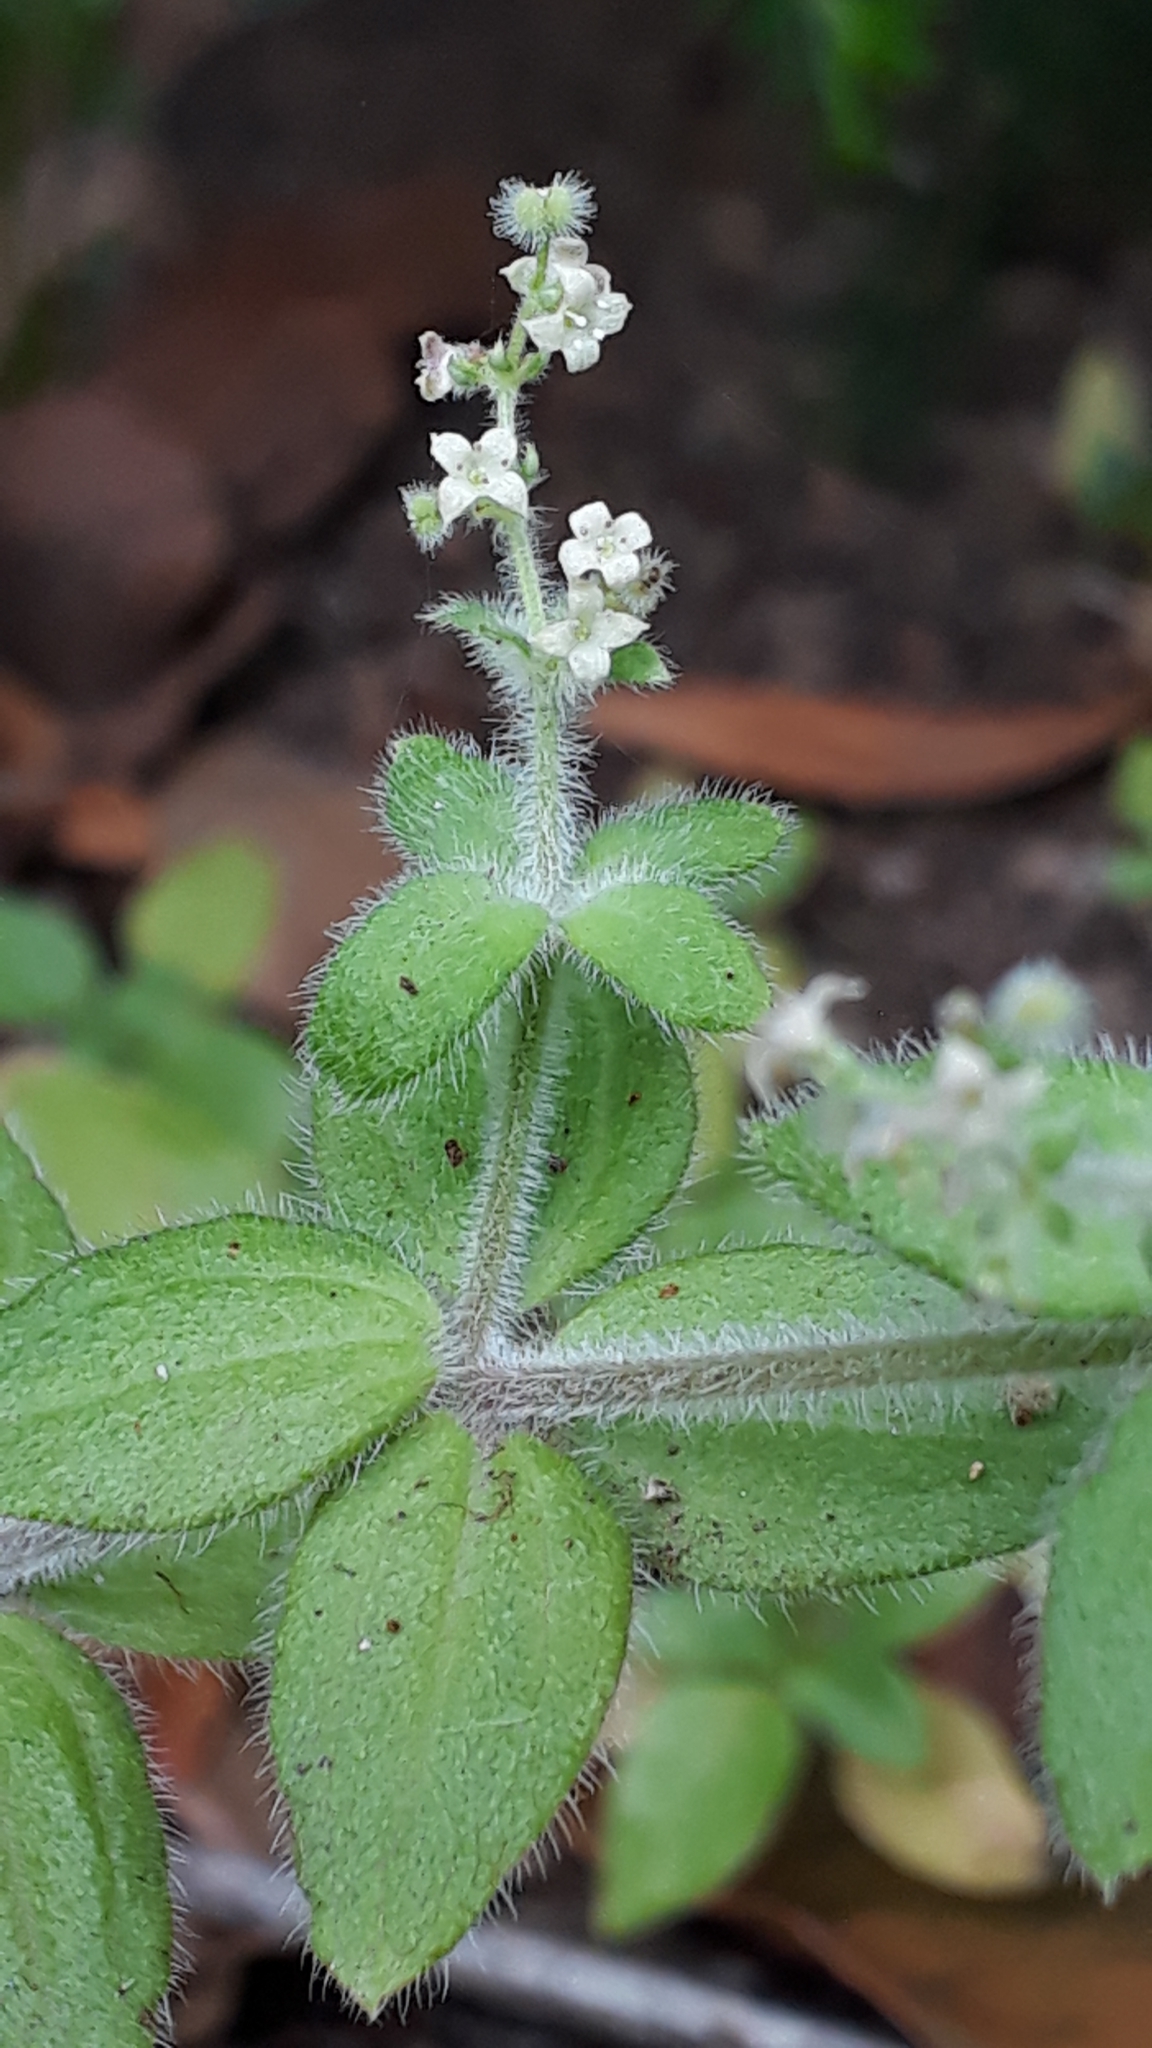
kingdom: Plantae
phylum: Tracheophyta
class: Magnoliopsida
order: Gentianales
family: Rubiaceae
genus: Galium
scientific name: Galium scabrum
